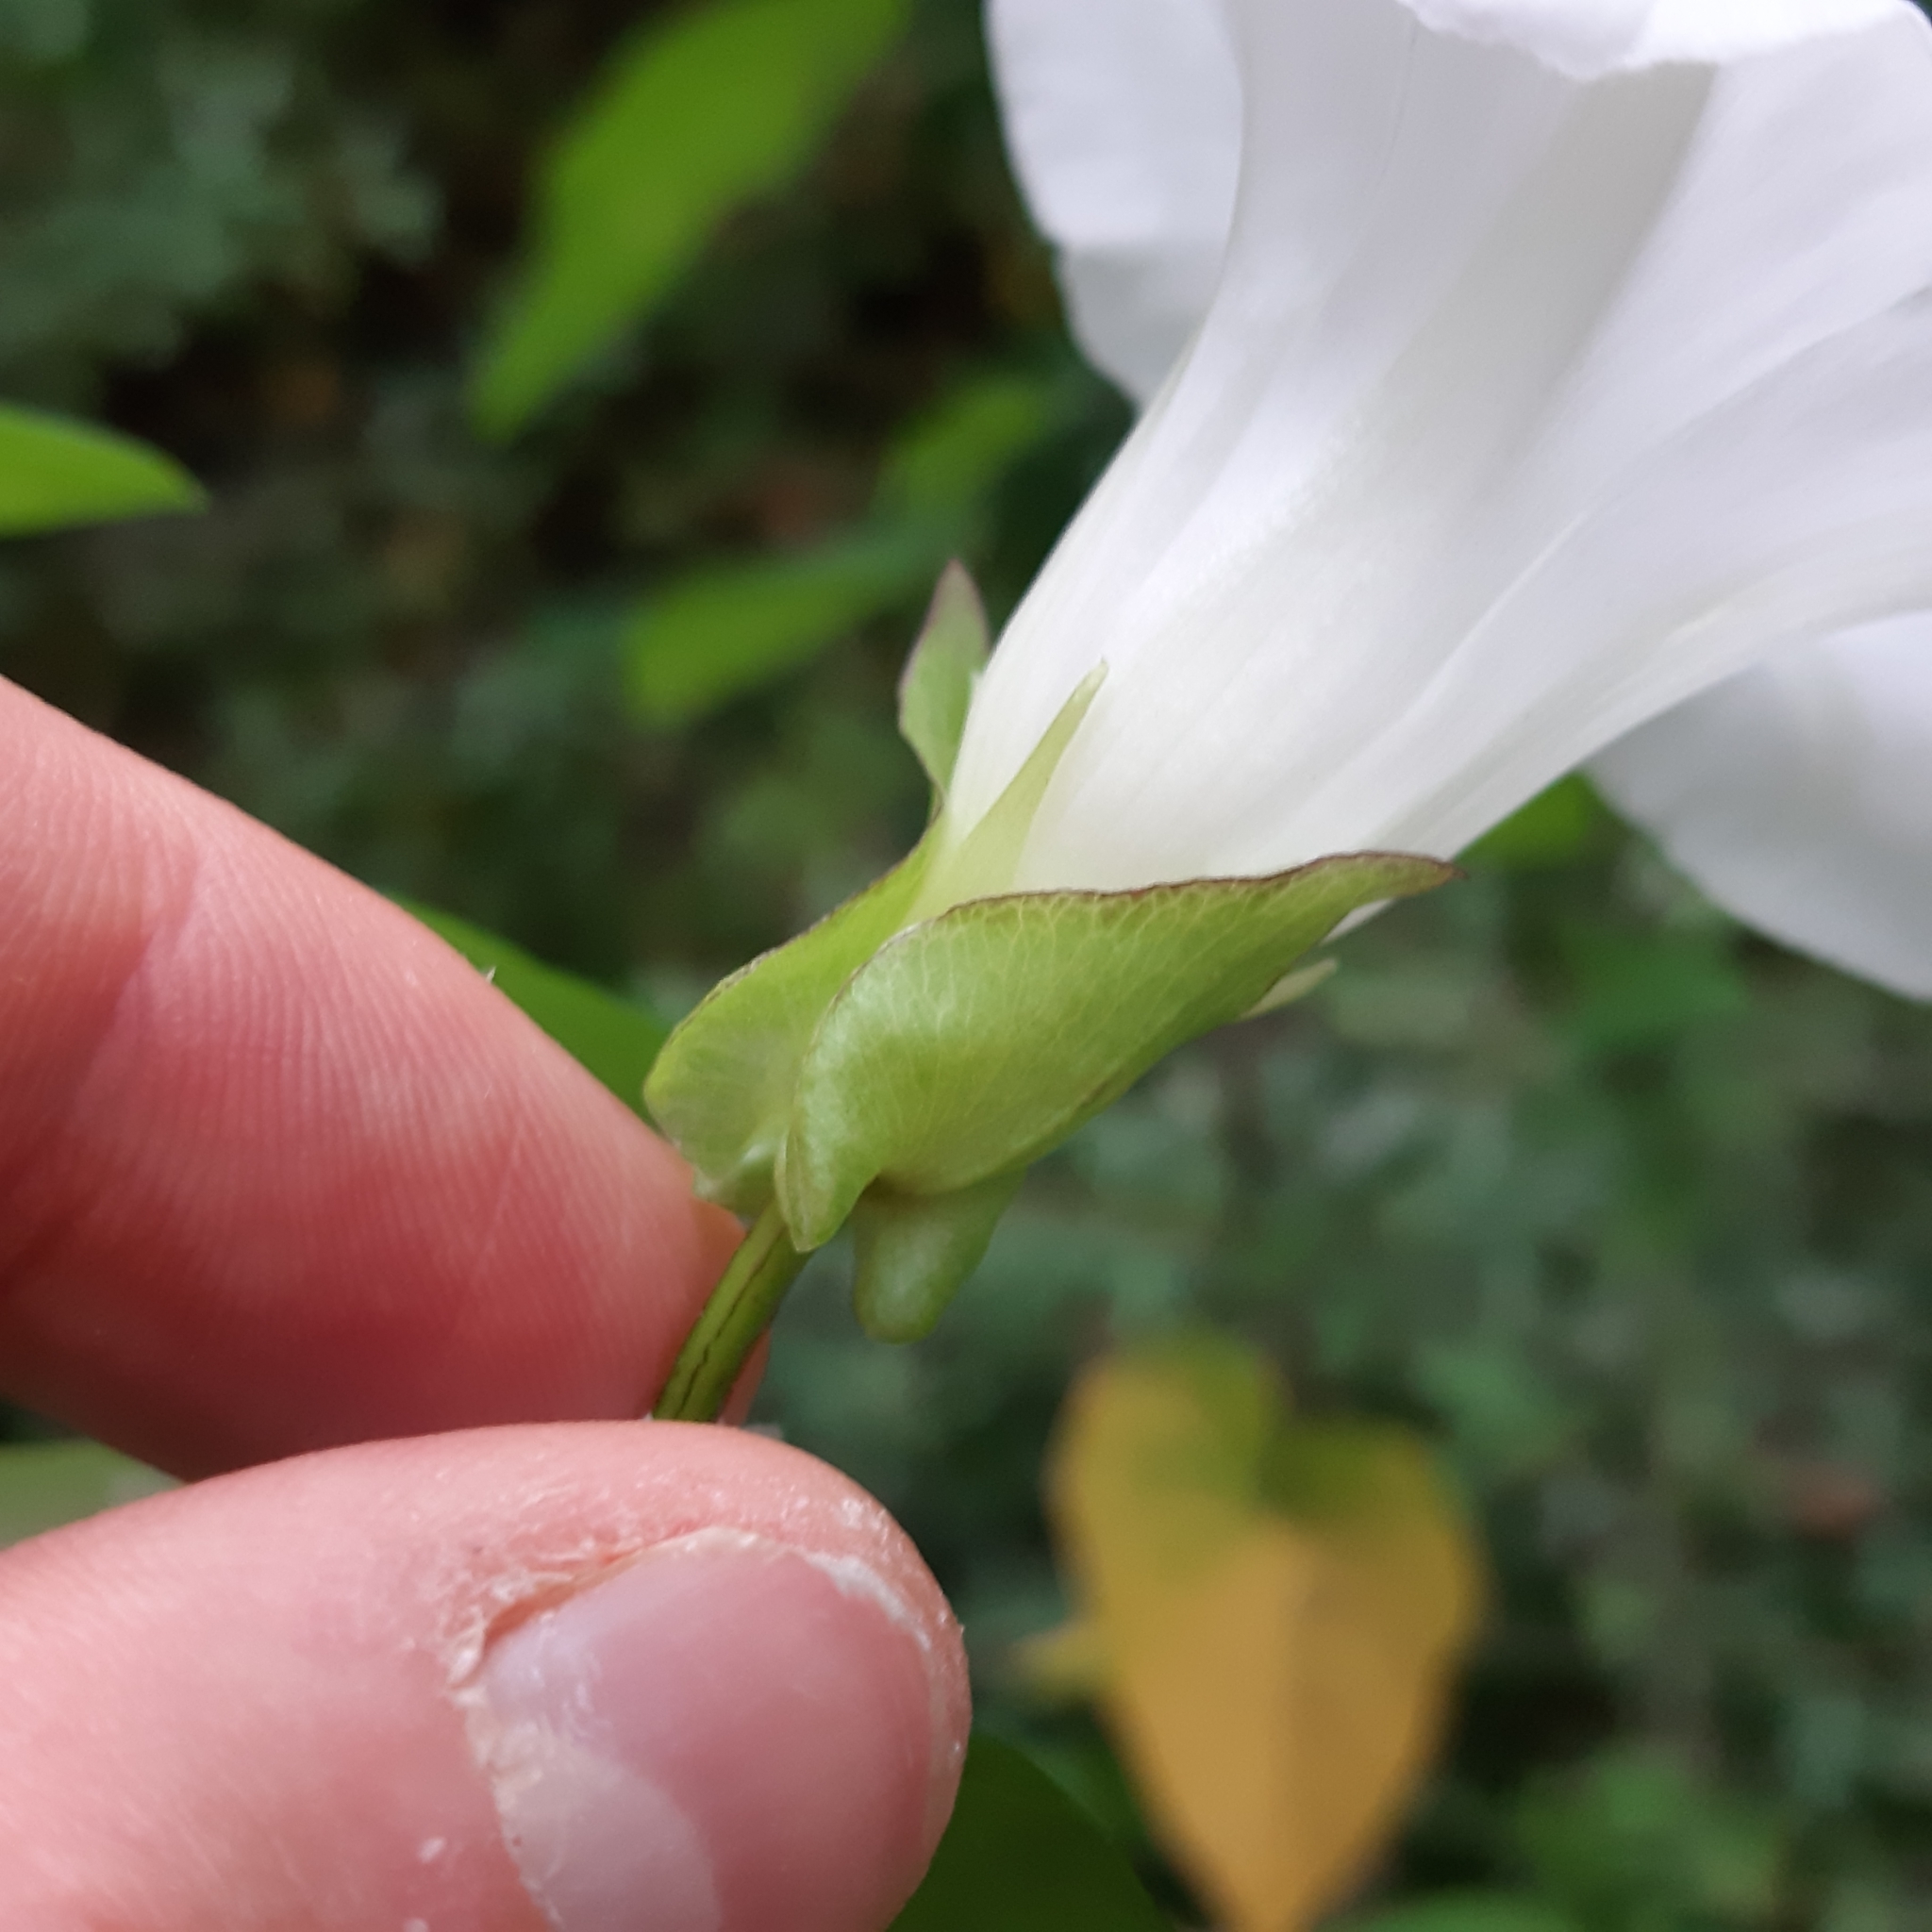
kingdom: Plantae
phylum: Tracheophyta
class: Magnoliopsida
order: Solanales
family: Convolvulaceae
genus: Calystegia
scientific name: Calystegia sepium
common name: Hedge bindweed
